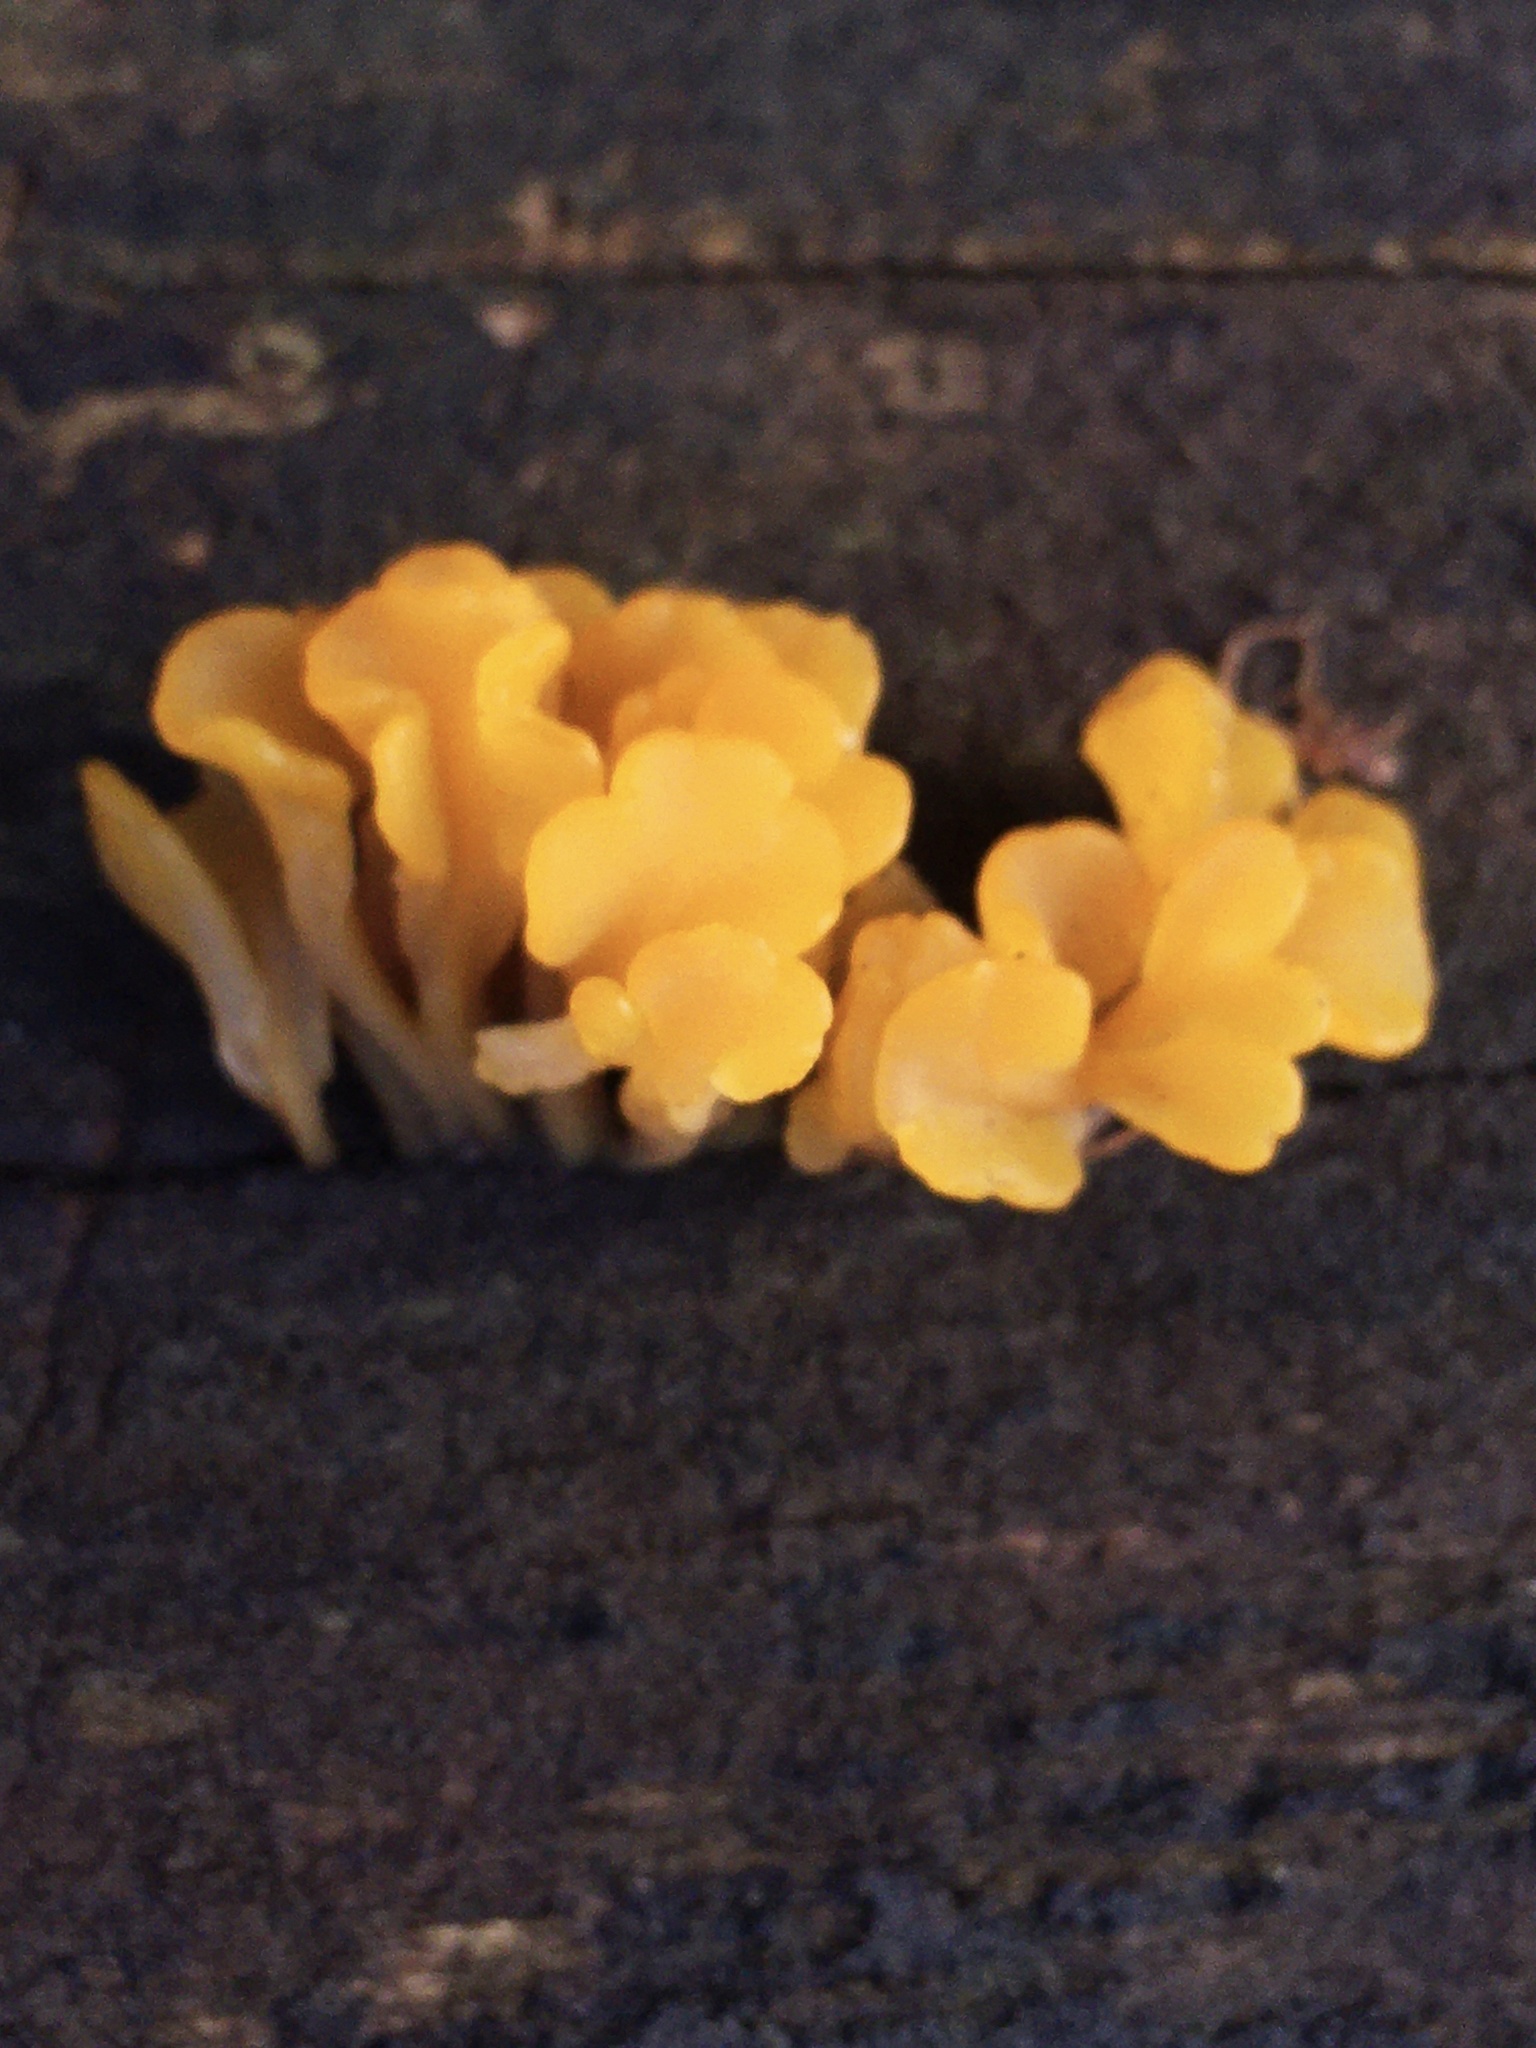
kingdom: Fungi
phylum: Basidiomycota
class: Dacrymycetes
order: Dacrymycetales
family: Dacrymycetaceae
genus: Dacrymyces
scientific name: Dacrymyces spathularius
